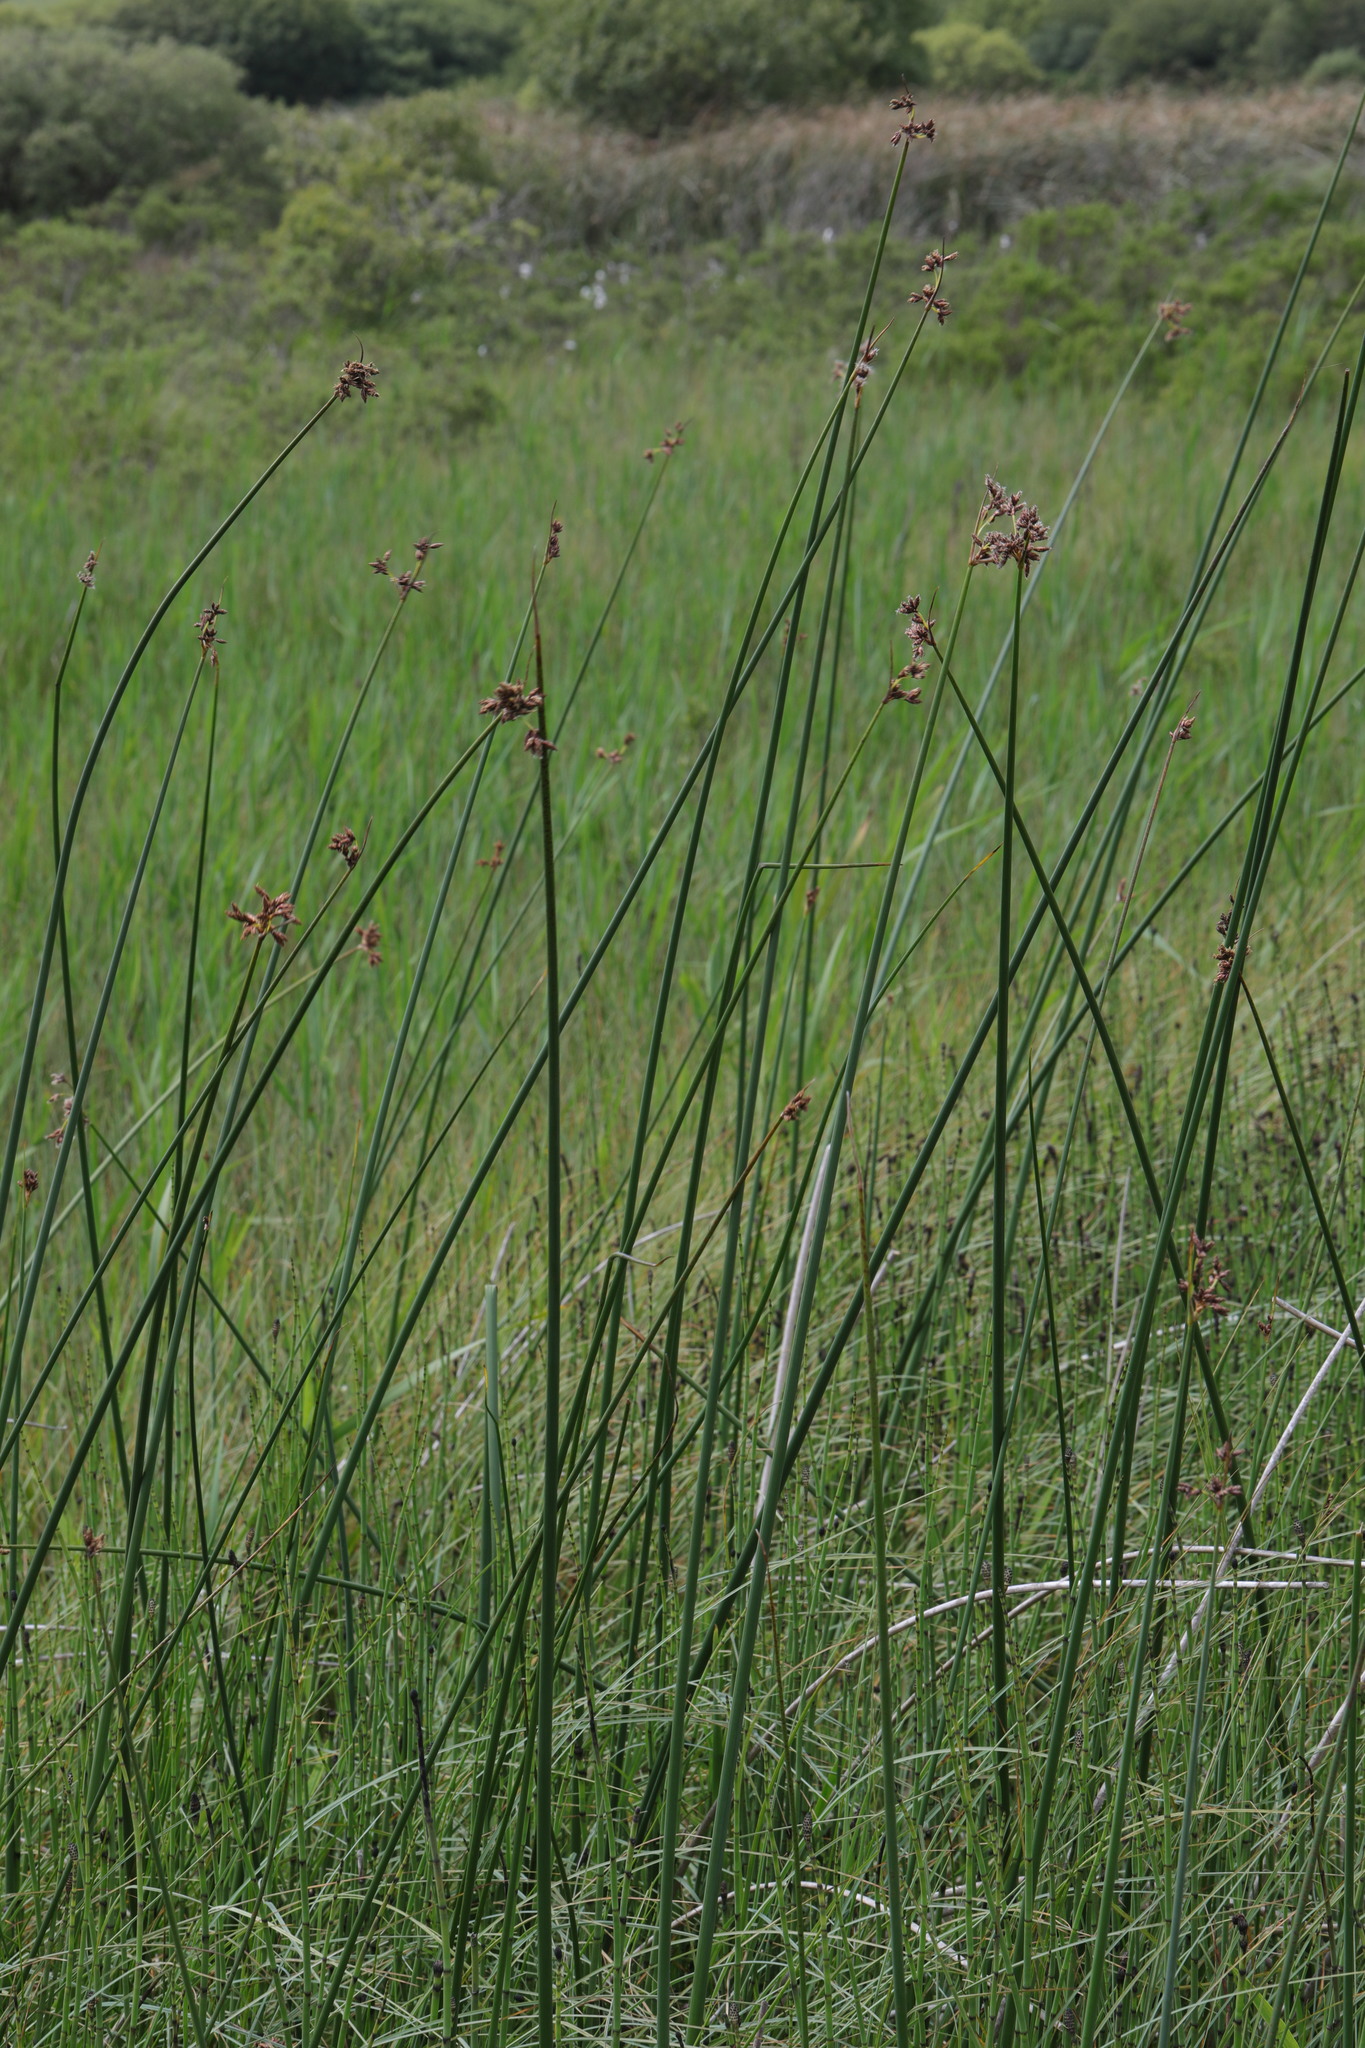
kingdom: Plantae
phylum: Tracheophyta
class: Liliopsida
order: Poales
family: Cyperaceae
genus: Schoenoplectus
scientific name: Schoenoplectus tabernaemontani
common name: Grey club-rush
